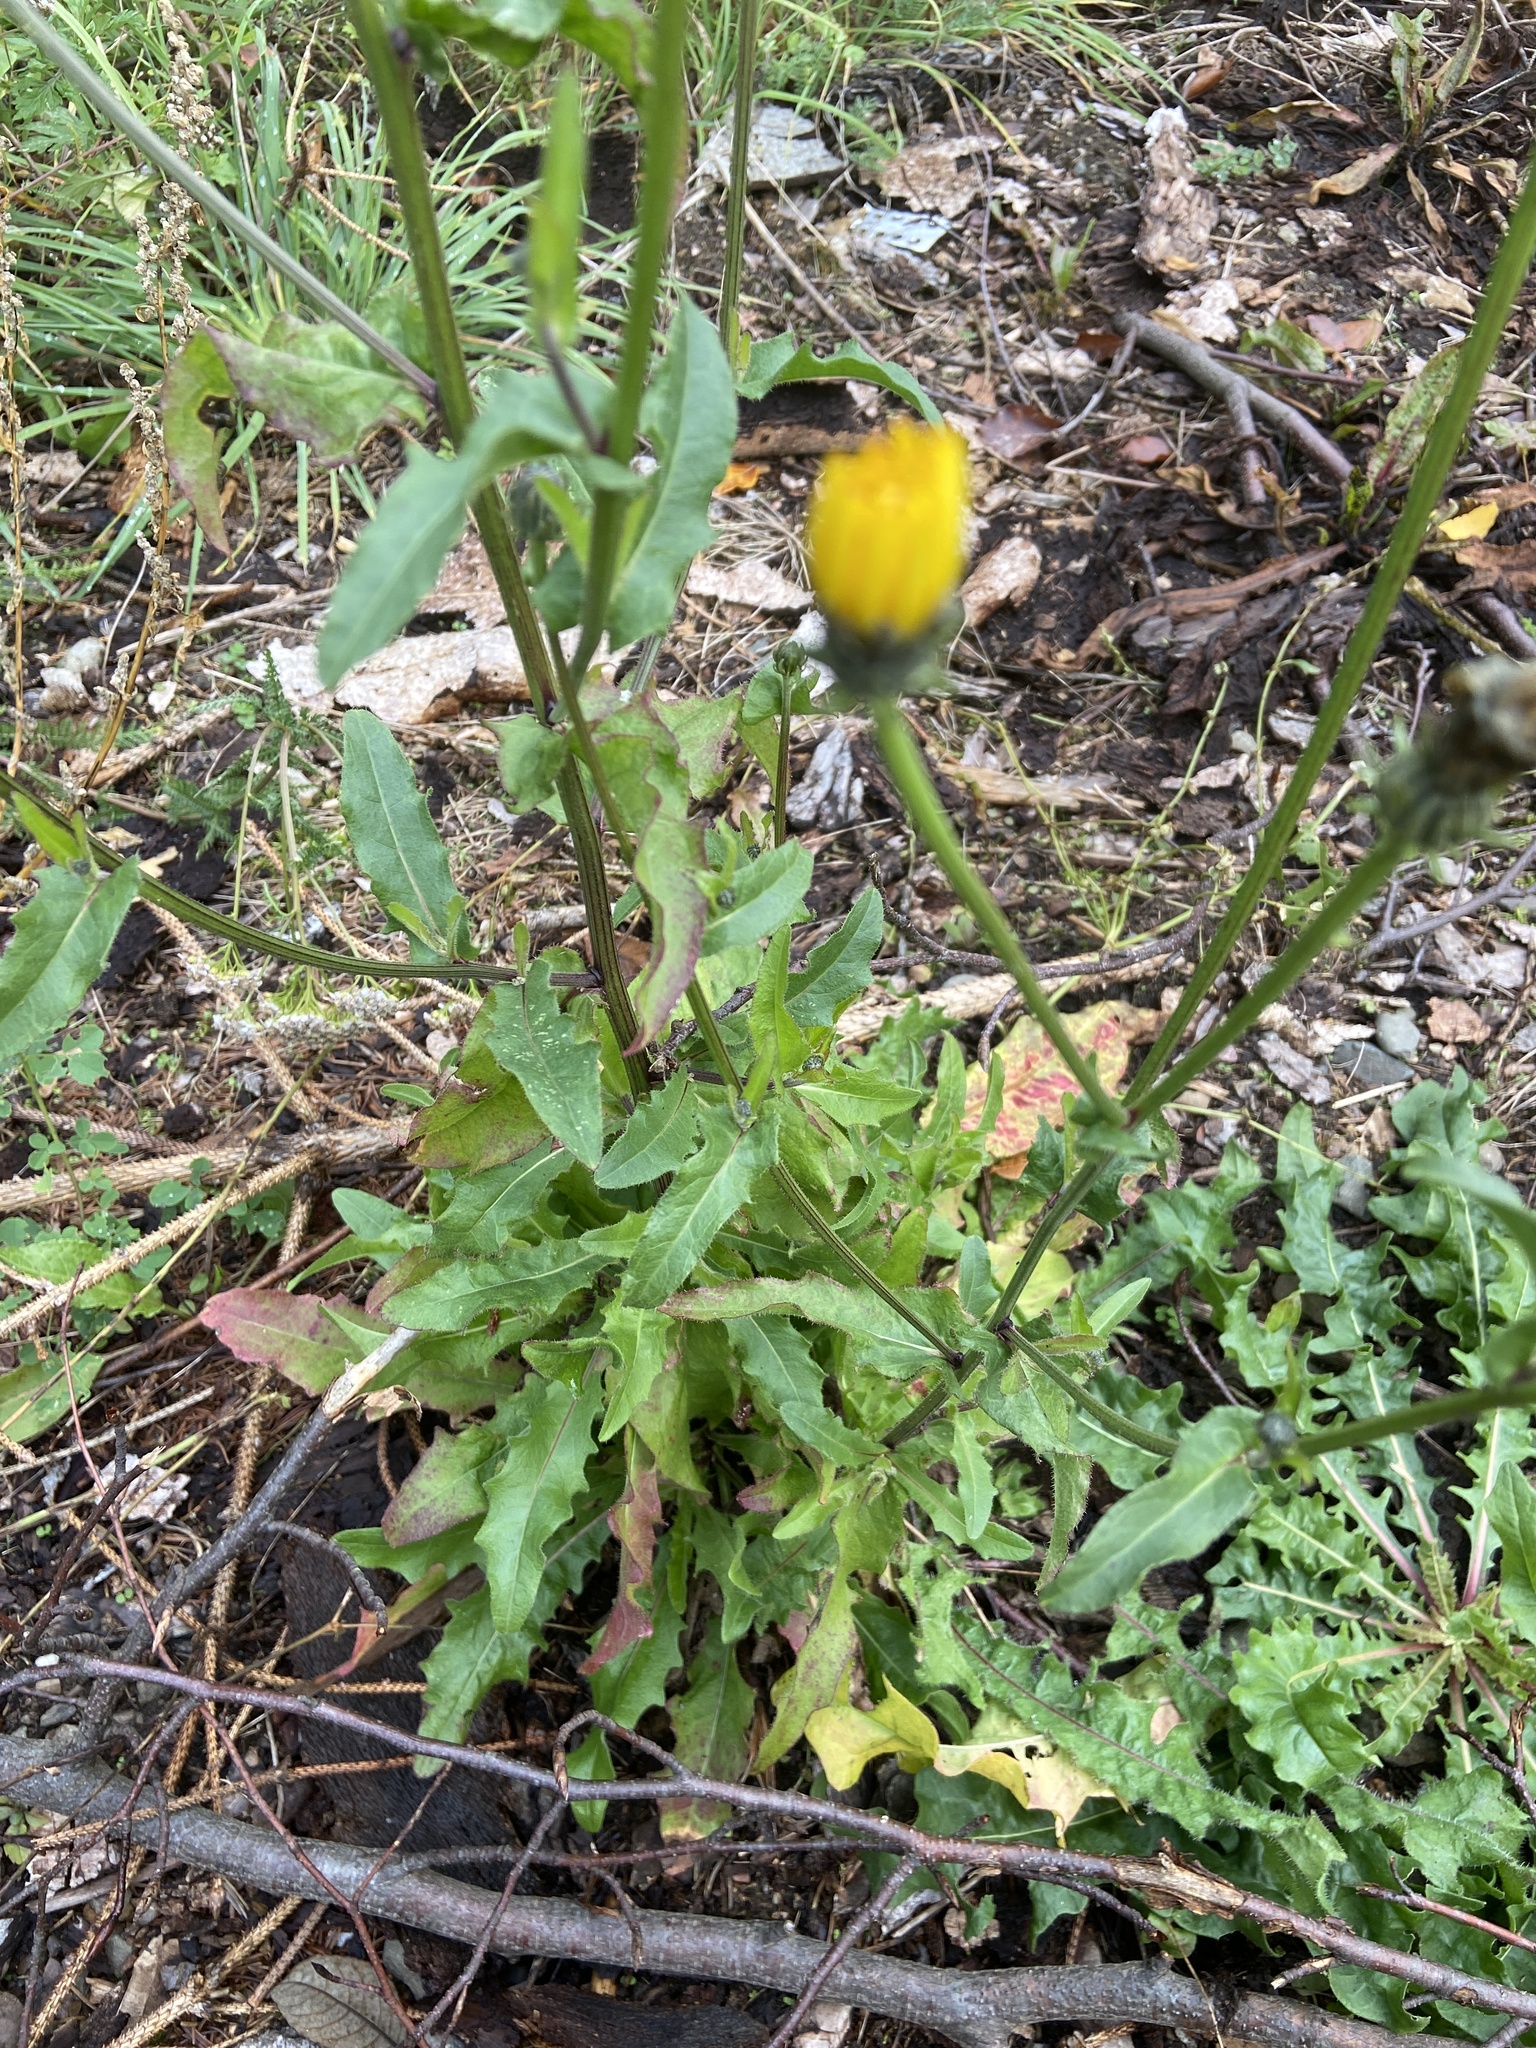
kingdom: Plantae
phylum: Tracheophyta
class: Magnoliopsida
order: Asterales
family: Asteraceae
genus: Picris
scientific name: Picris hieracioides
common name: Hawkweed oxtongue
